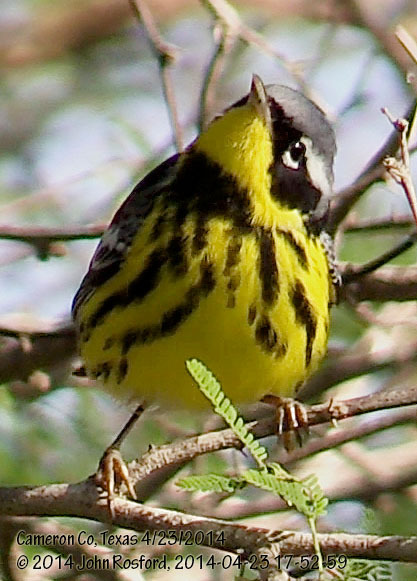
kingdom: Animalia
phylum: Chordata
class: Aves
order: Passeriformes
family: Parulidae
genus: Setophaga
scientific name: Setophaga magnolia
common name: Magnolia warbler
